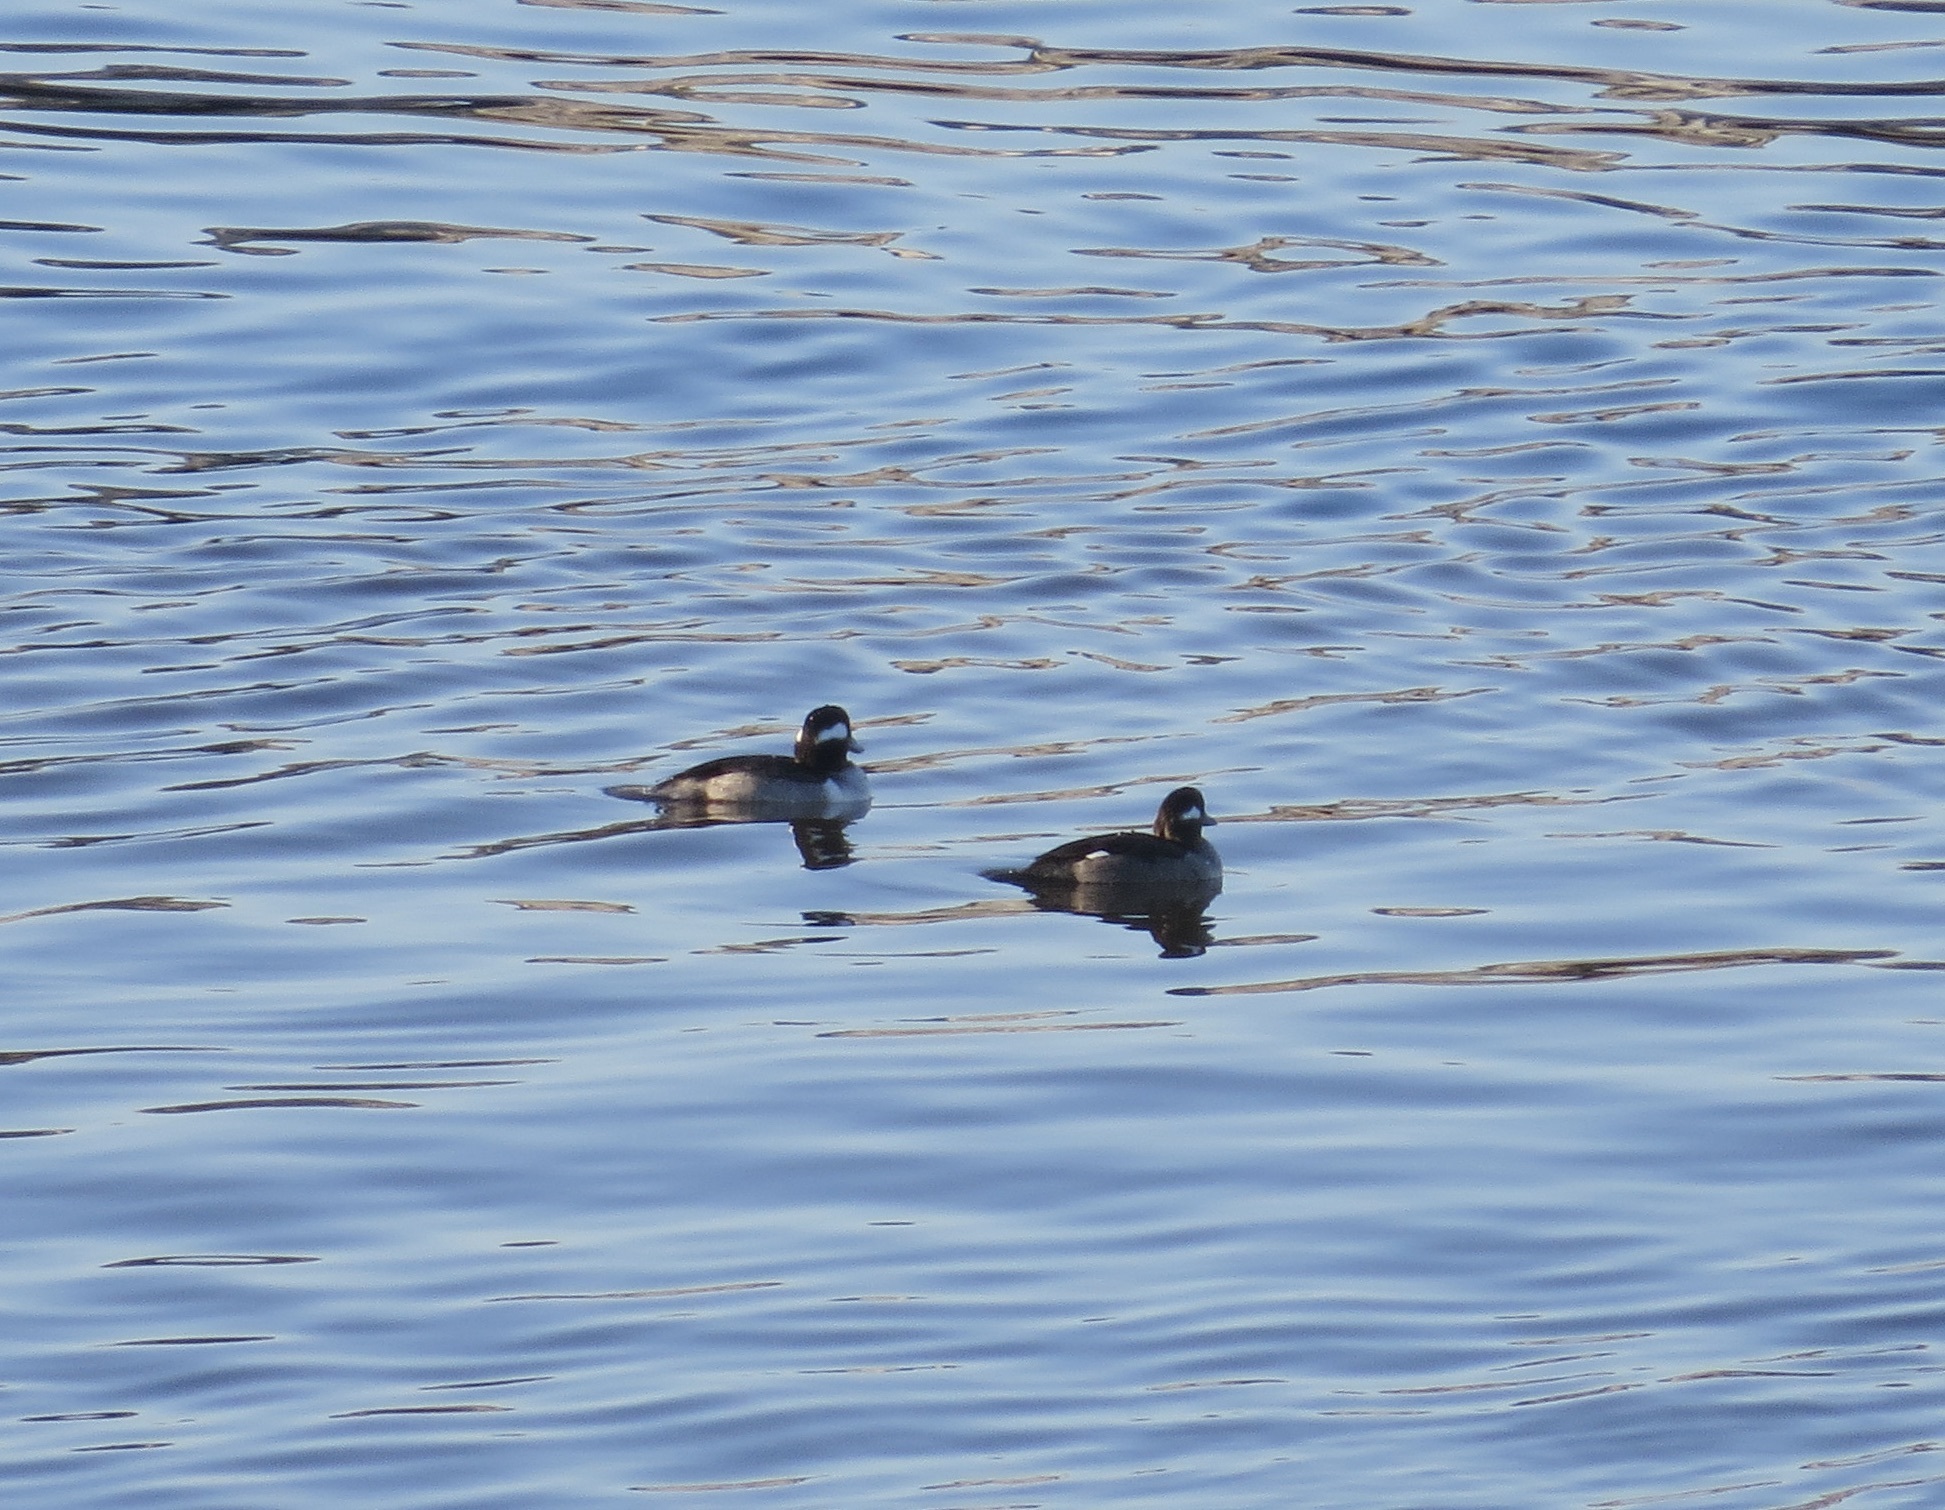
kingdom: Animalia
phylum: Chordata
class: Aves
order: Anseriformes
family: Anatidae
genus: Bucephala
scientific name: Bucephala albeola
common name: Bufflehead
